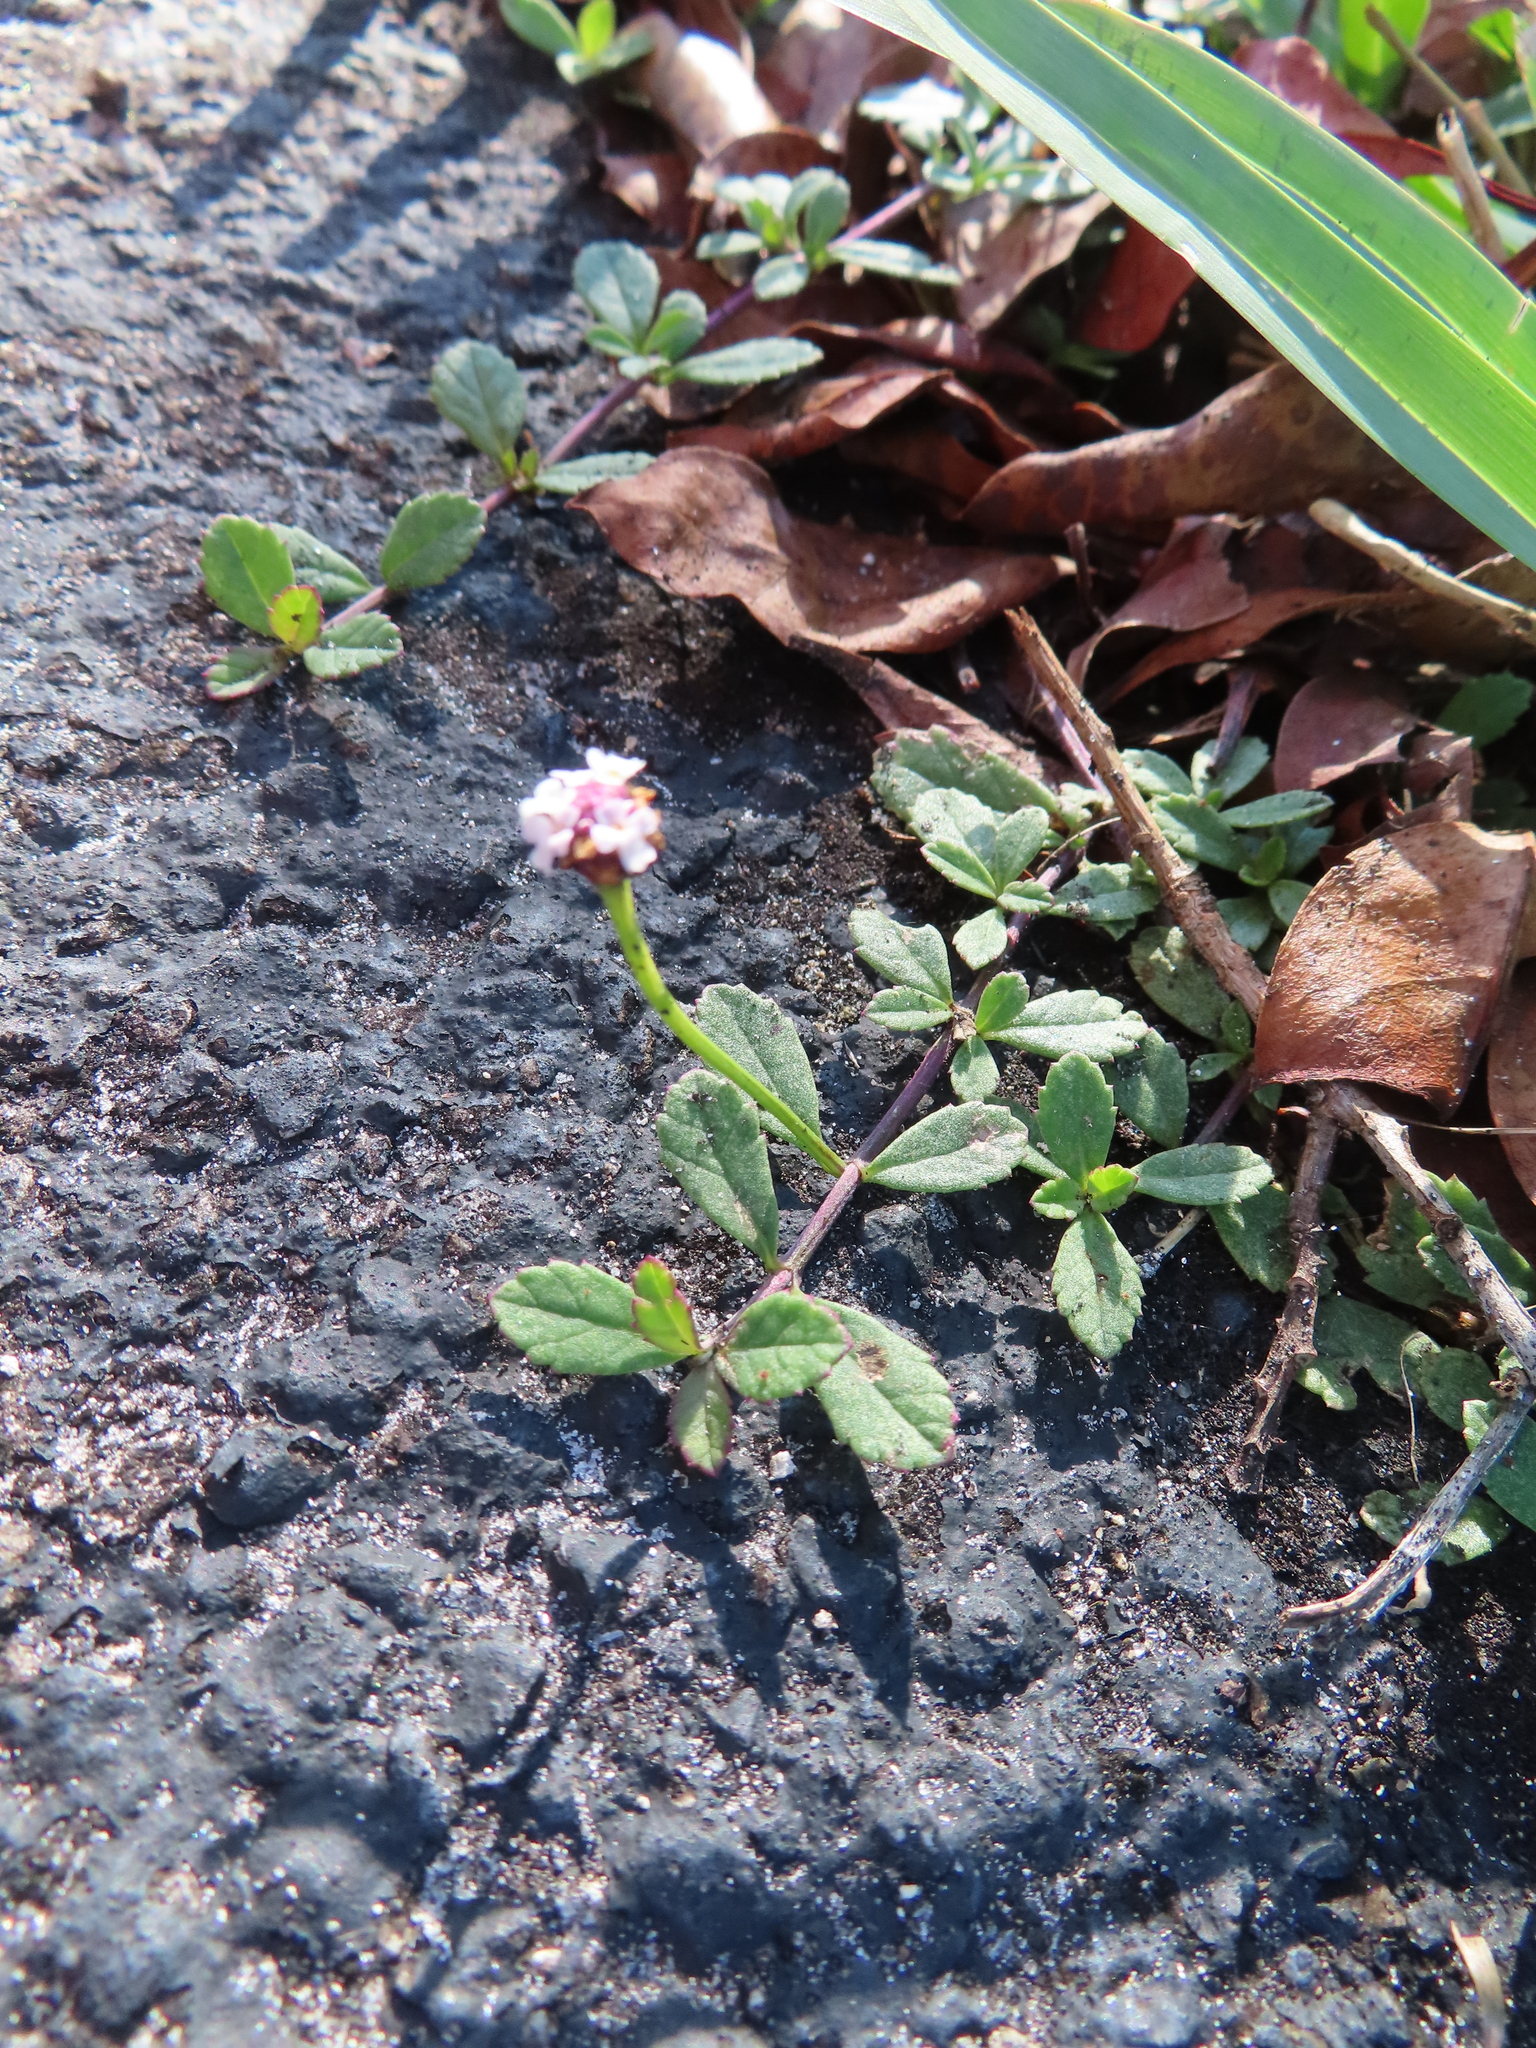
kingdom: Plantae
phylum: Tracheophyta
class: Magnoliopsida
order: Lamiales
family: Verbenaceae
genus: Phyla
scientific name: Phyla nodiflora
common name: Frogfruit
